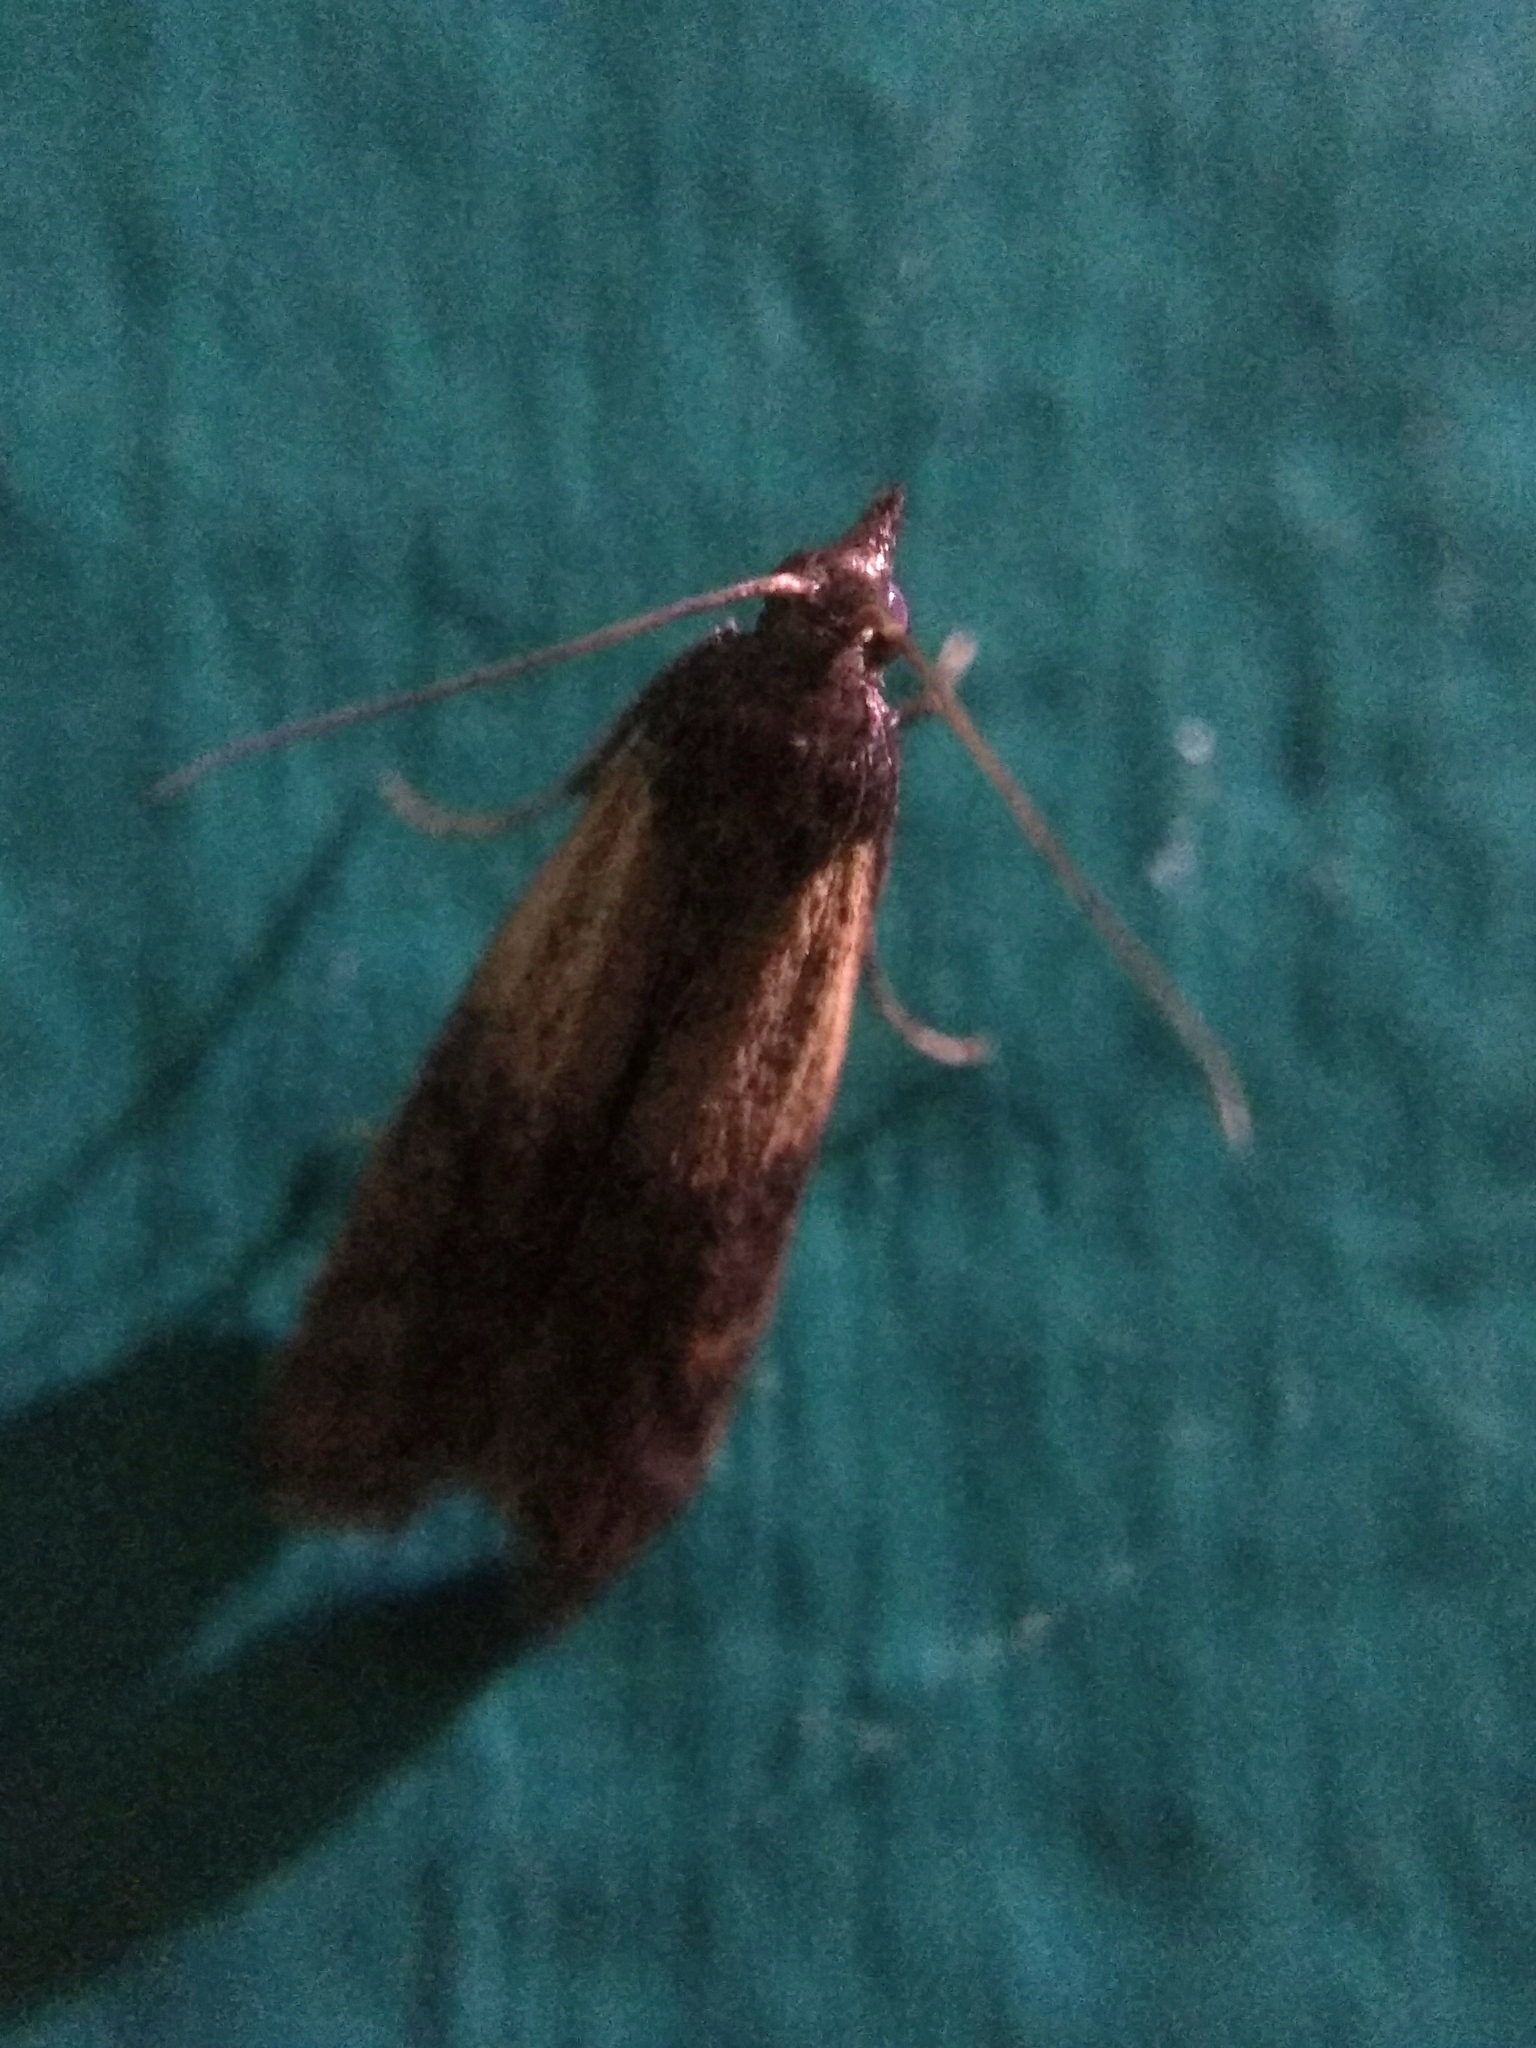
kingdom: Animalia
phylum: Arthropoda
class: Insecta
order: Lepidoptera
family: Pyralidae
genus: Plodia
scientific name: Plodia interpunctella
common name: Indian meal moth
